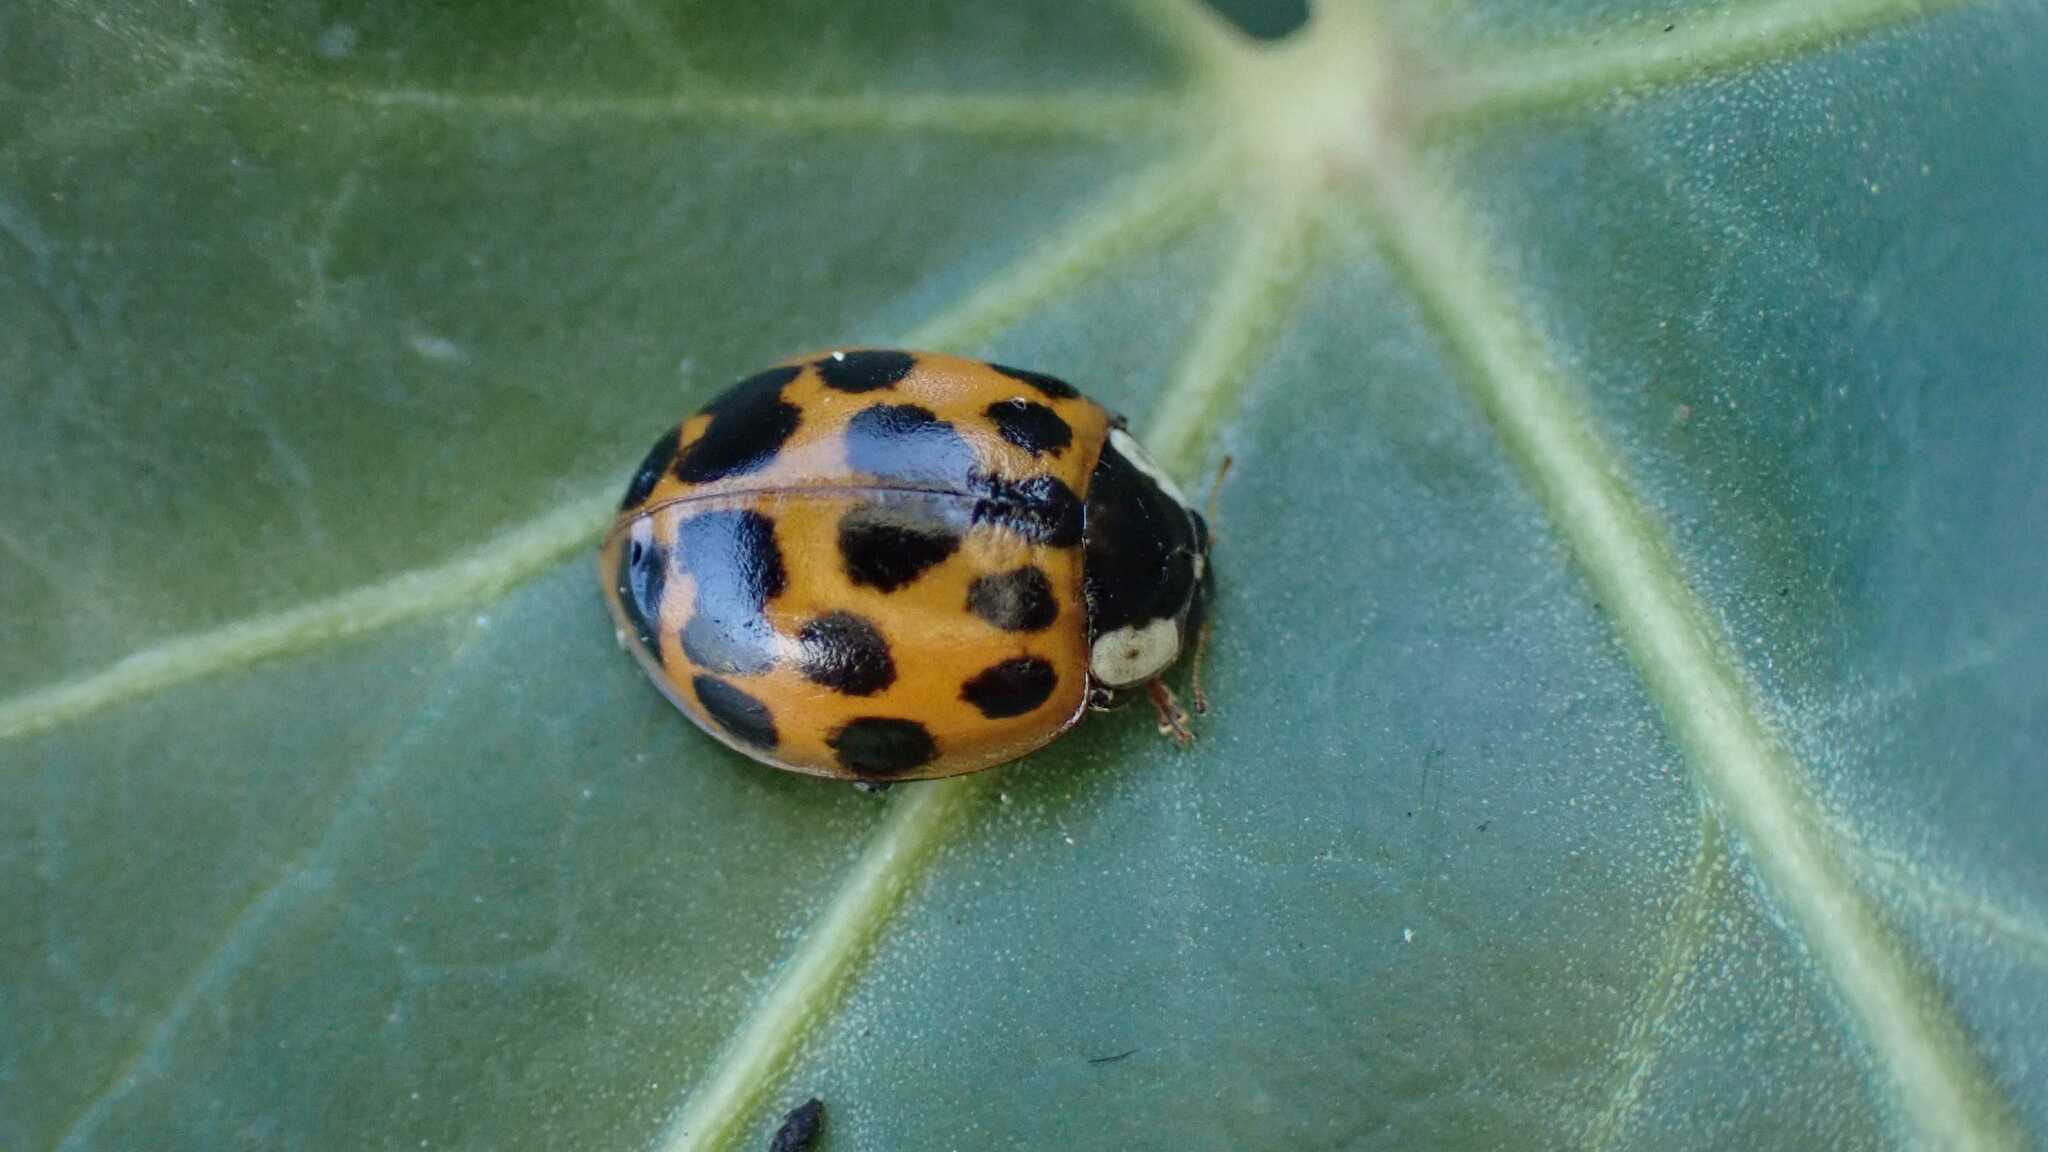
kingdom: Animalia
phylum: Arthropoda
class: Insecta
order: Coleoptera
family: Coccinellidae
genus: Harmonia
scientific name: Harmonia axyridis
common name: Harlequin ladybird
